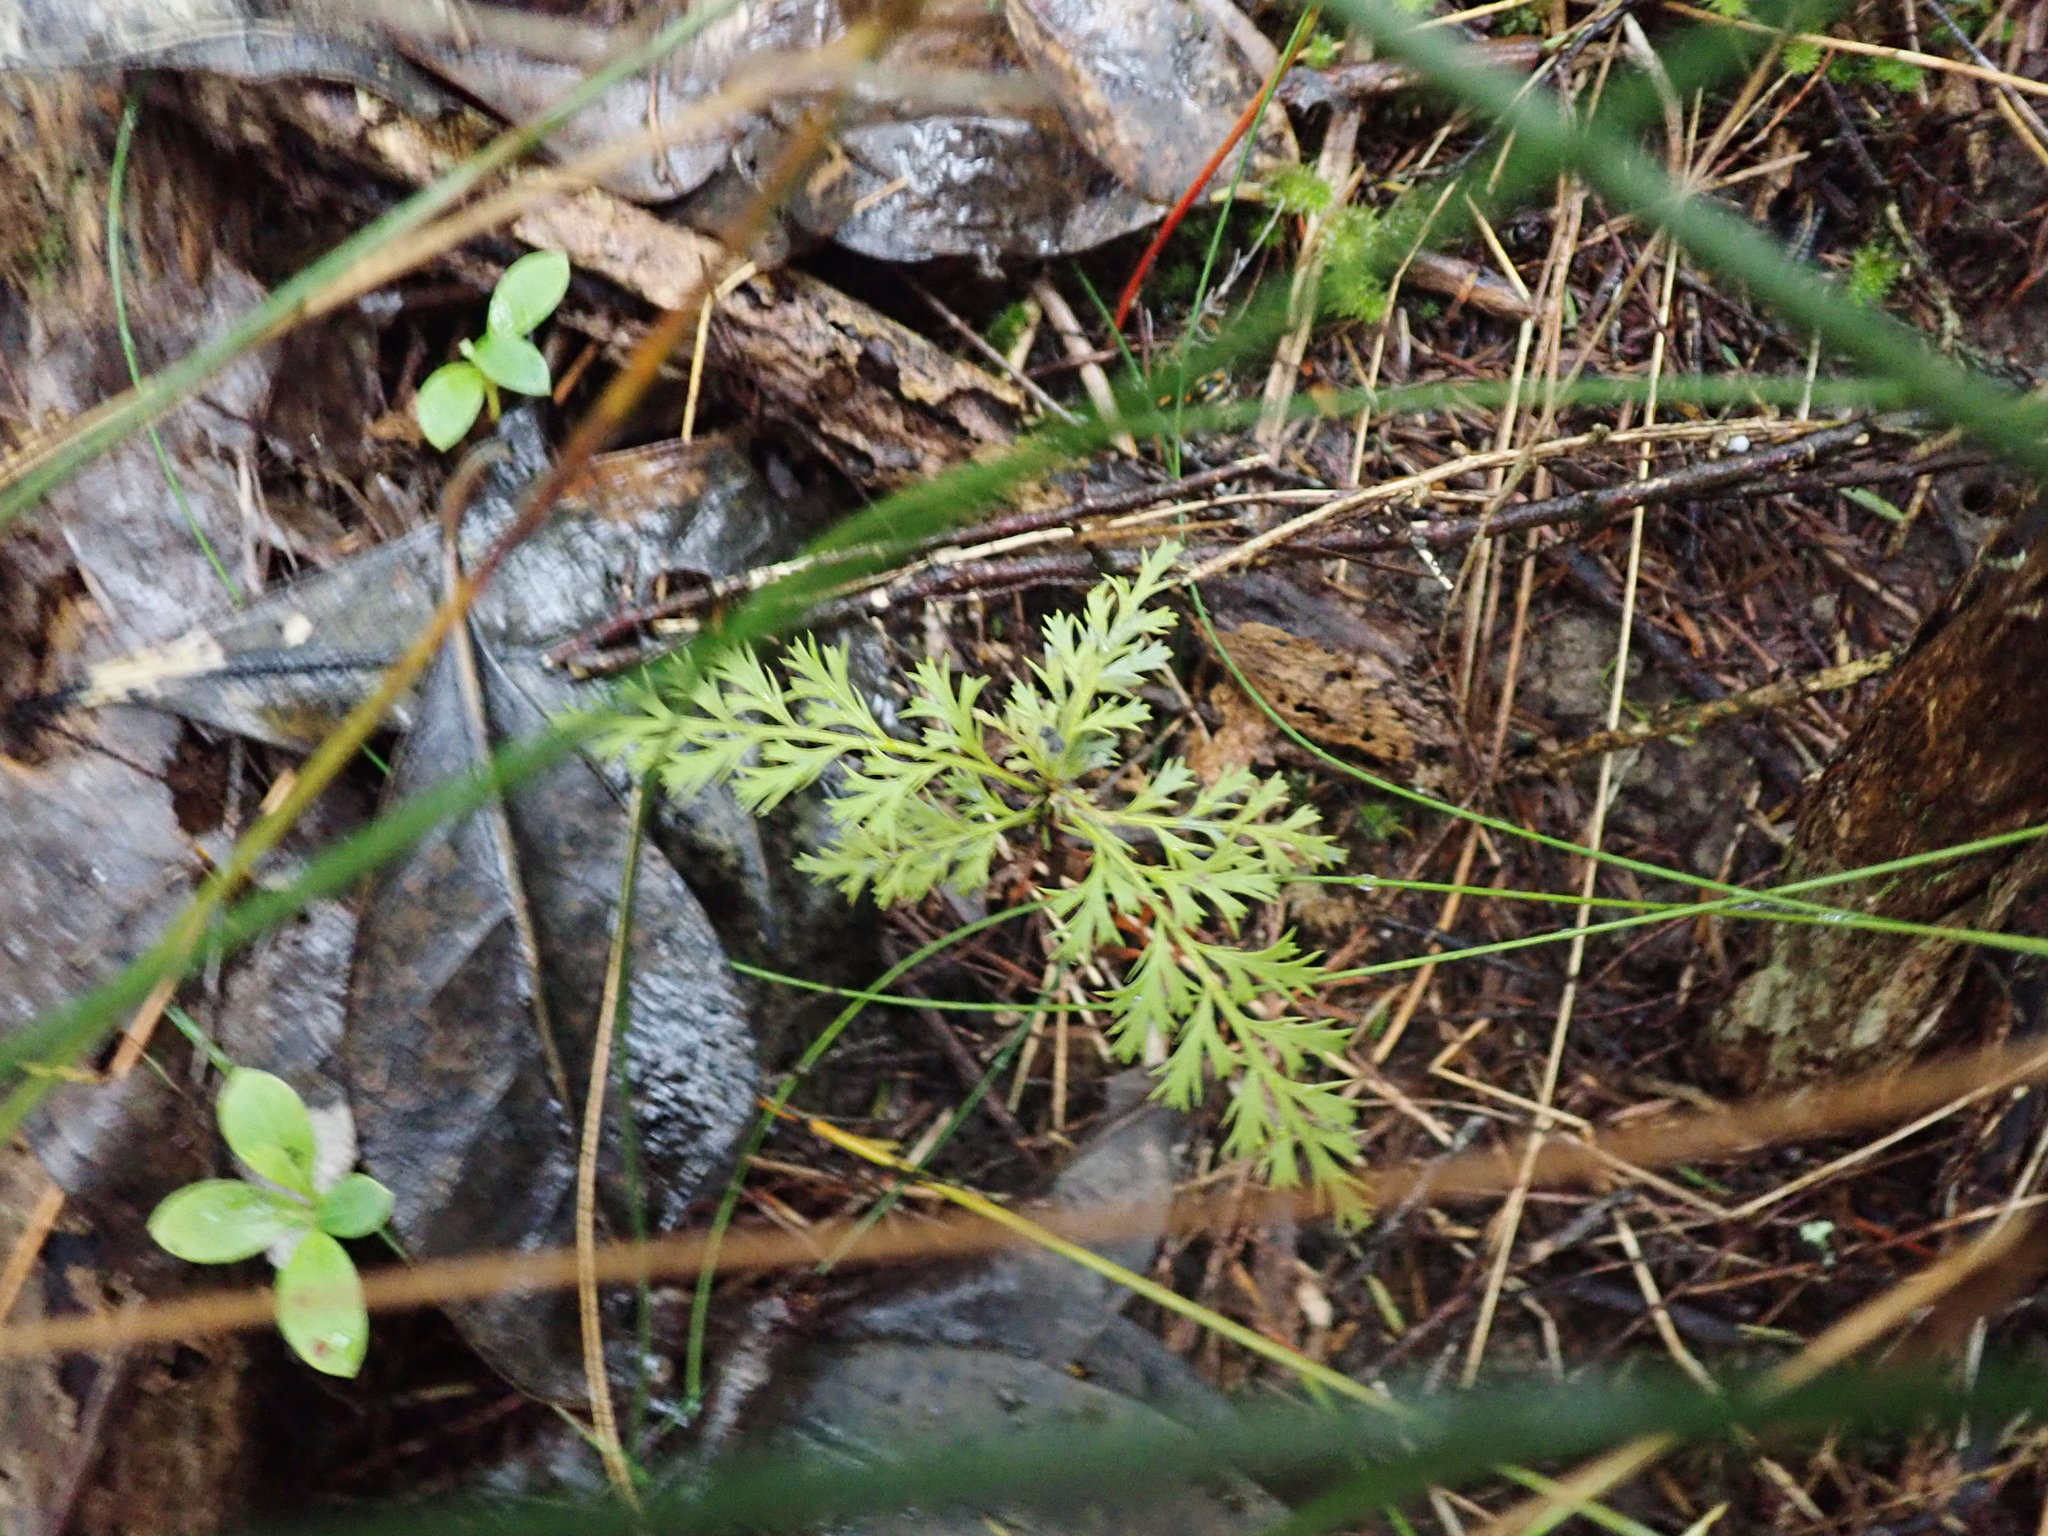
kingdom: Plantae
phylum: Tracheophyta
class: Pinopsida
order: Pinales
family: Phyllocladaceae
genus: Phyllocladus
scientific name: Phyllocladus trichomanoides
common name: Celery pine
